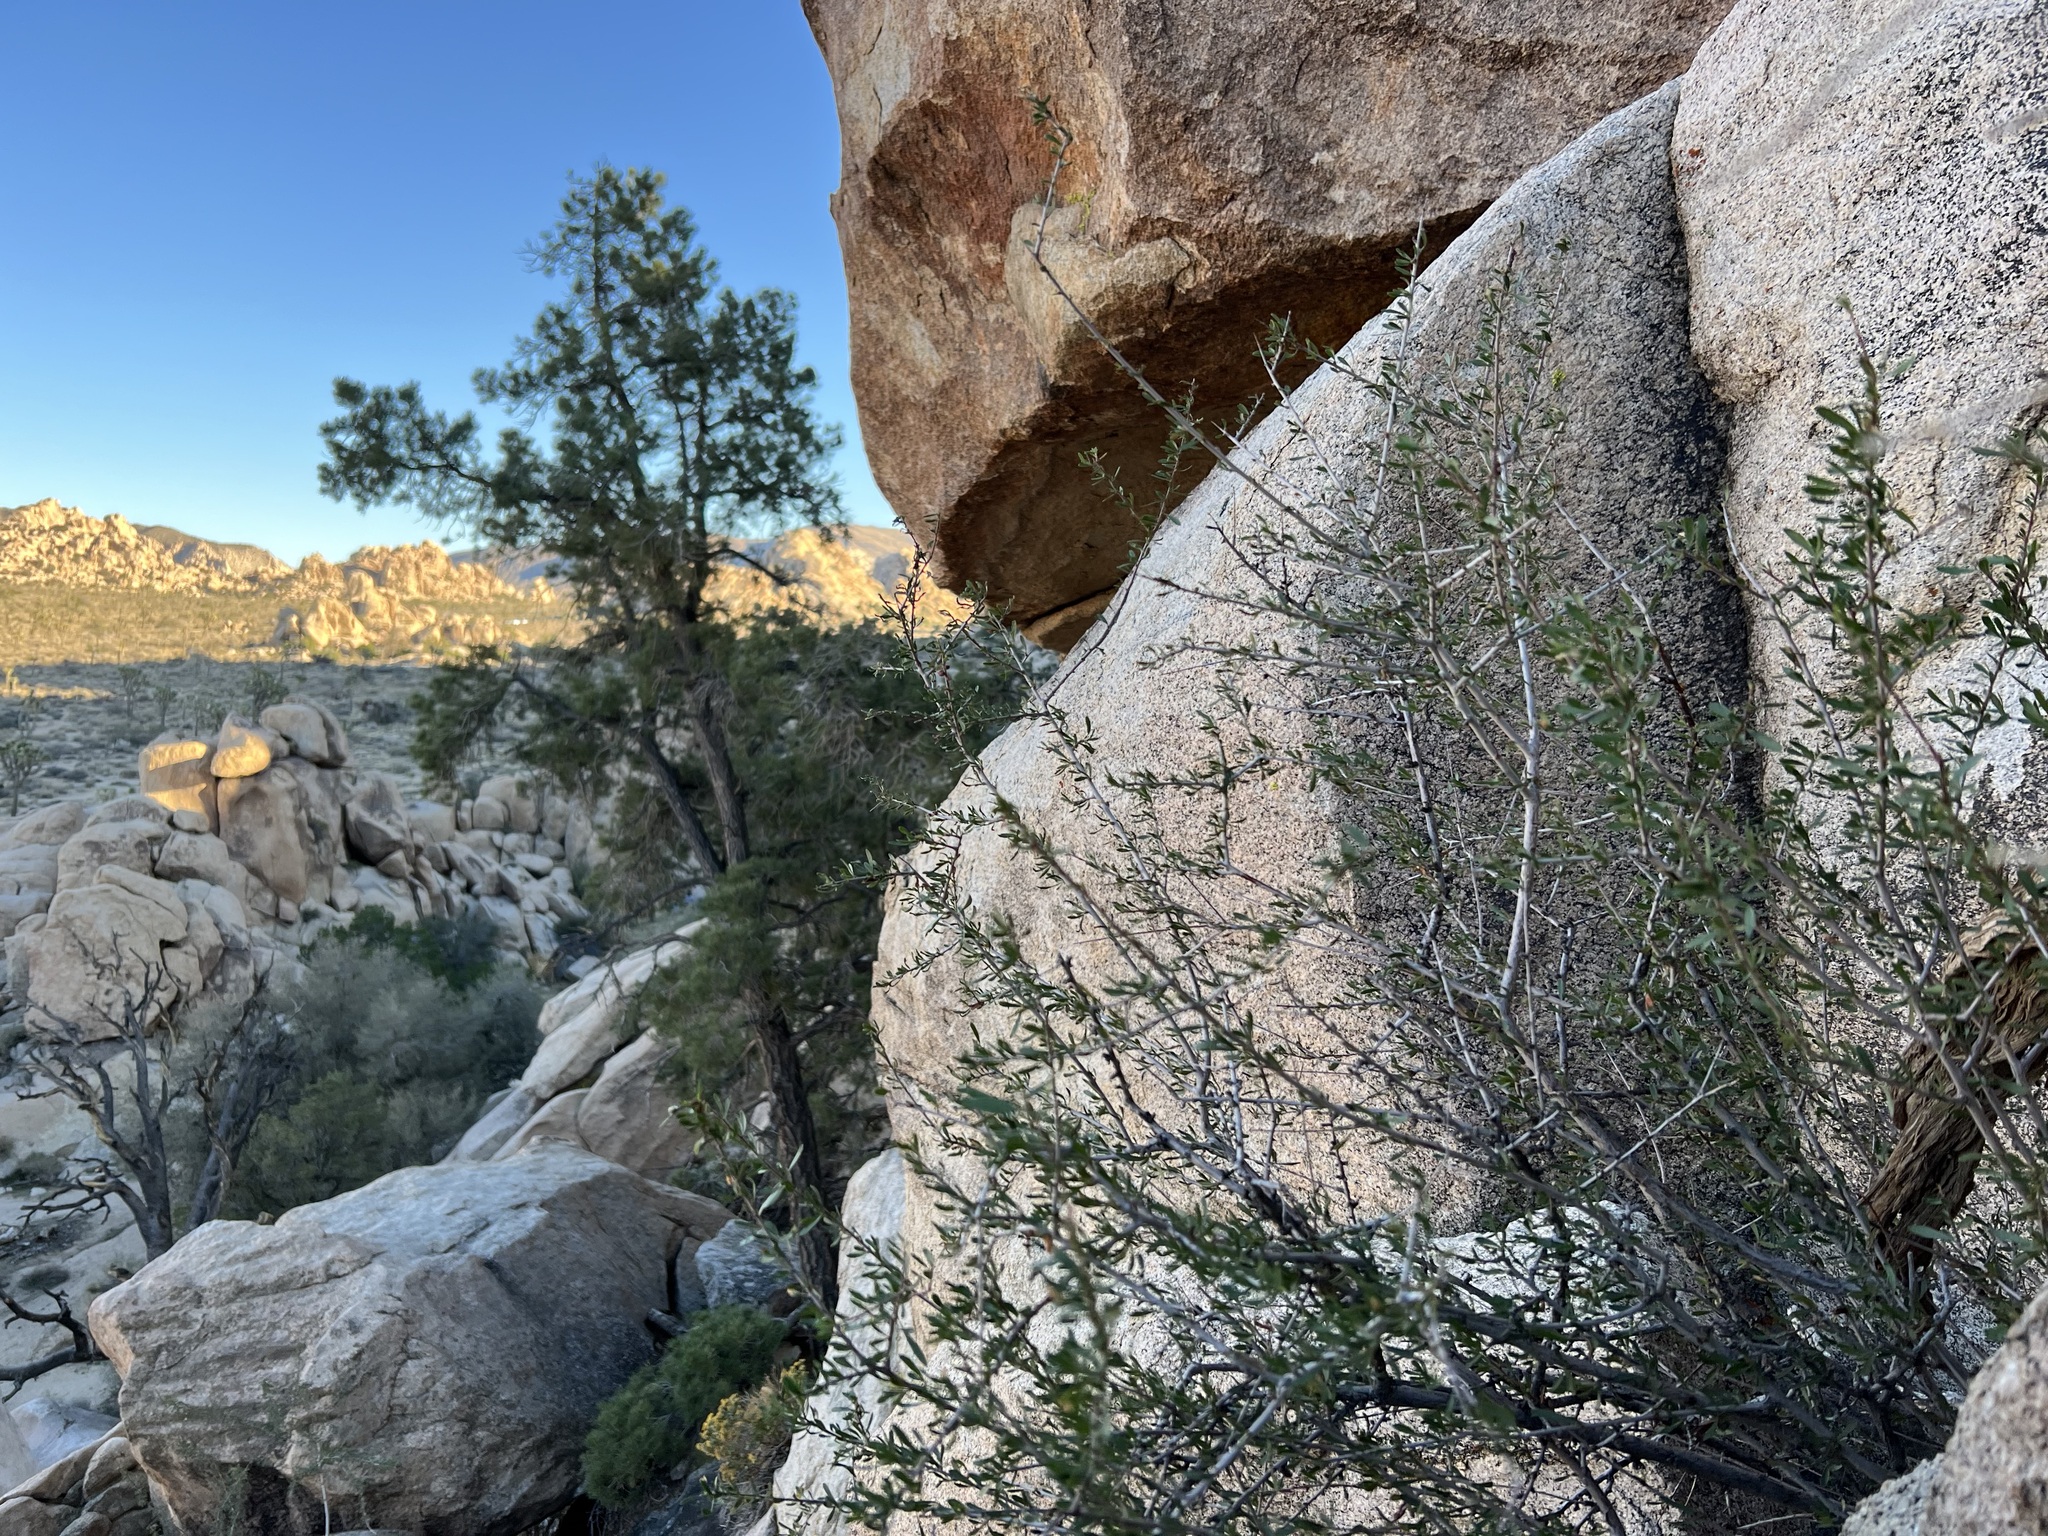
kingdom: Plantae
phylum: Tracheophyta
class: Magnoliopsida
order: Rosales
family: Rosaceae
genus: Prunus
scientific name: Prunus fasciculata
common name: Desert almond
